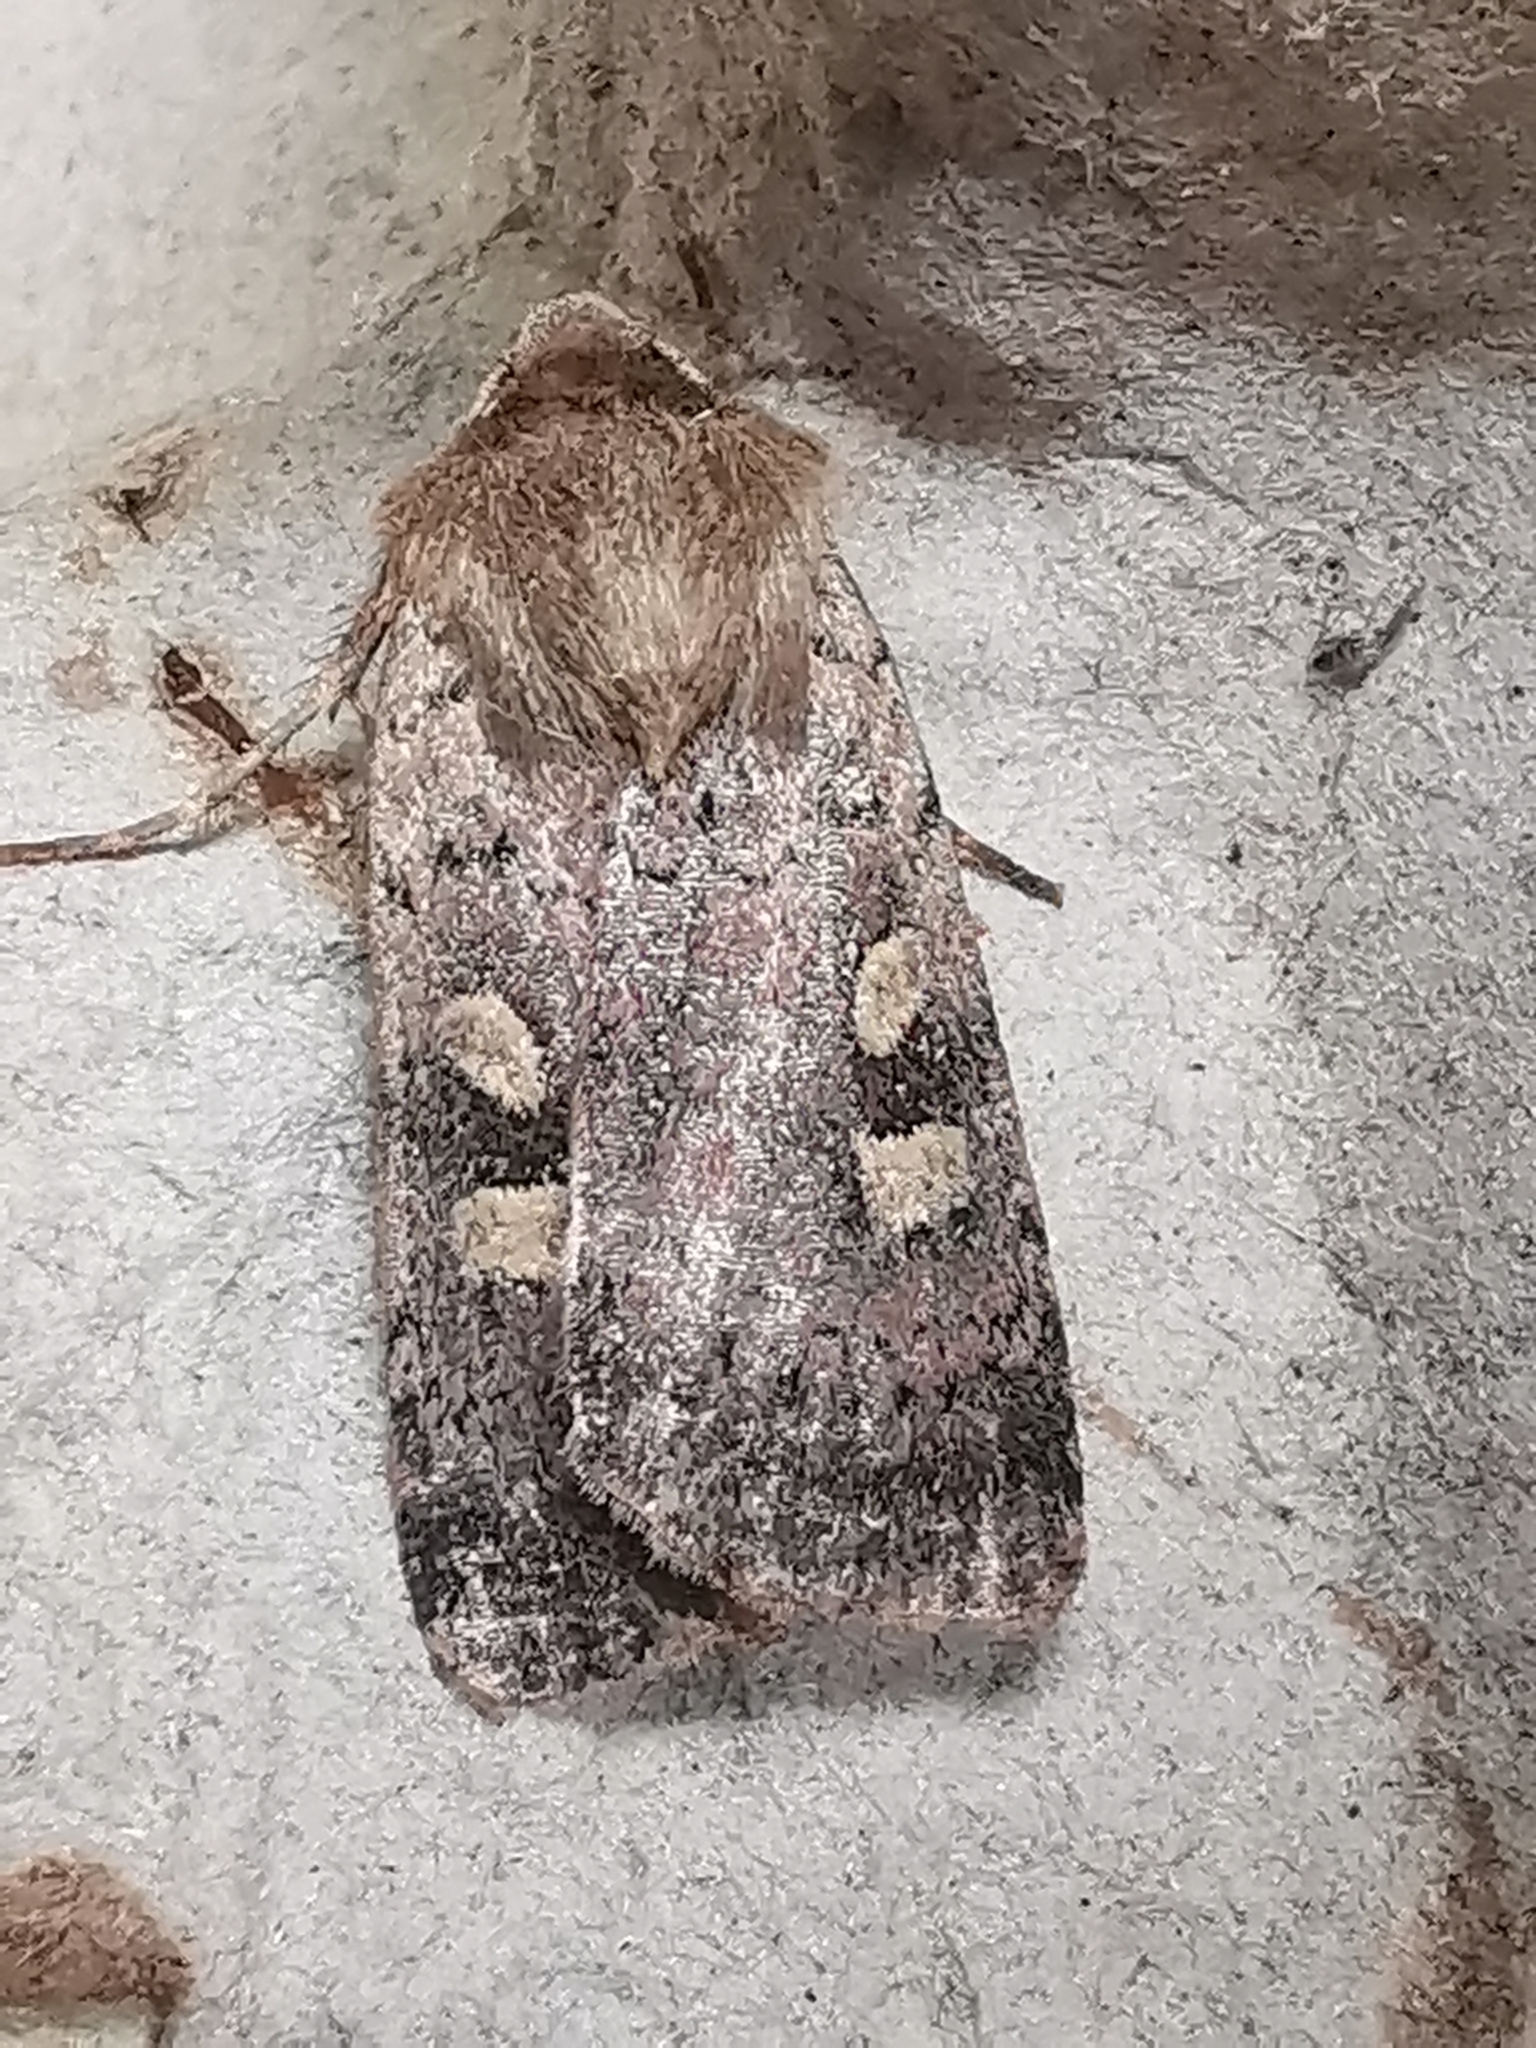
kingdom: Animalia
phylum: Arthropoda
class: Insecta
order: Lepidoptera
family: Noctuidae
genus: Xestia
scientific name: Xestia xanthographa
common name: Square-spot rustic
